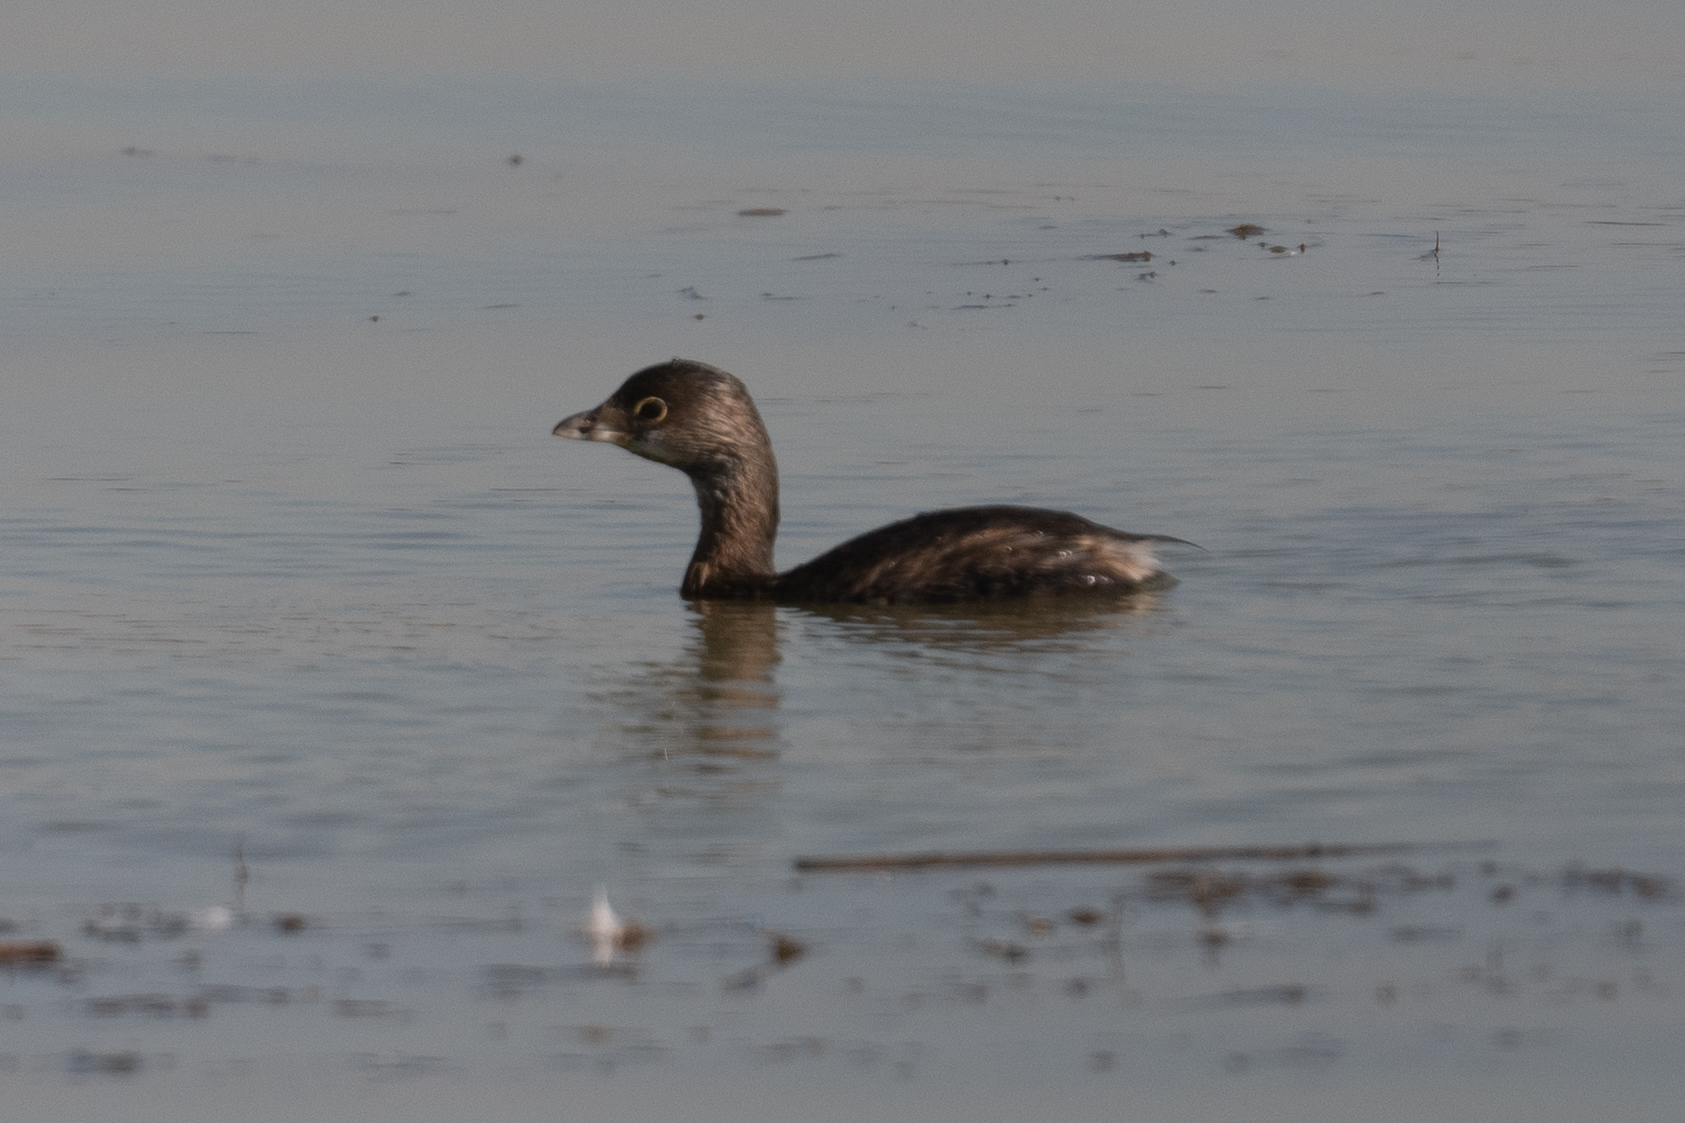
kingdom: Animalia
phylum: Chordata
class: Aves
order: Podicipediformes
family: Podicipedidae
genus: Podilymbus
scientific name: Podilymbus podiceps
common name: Pied-billed grebe
